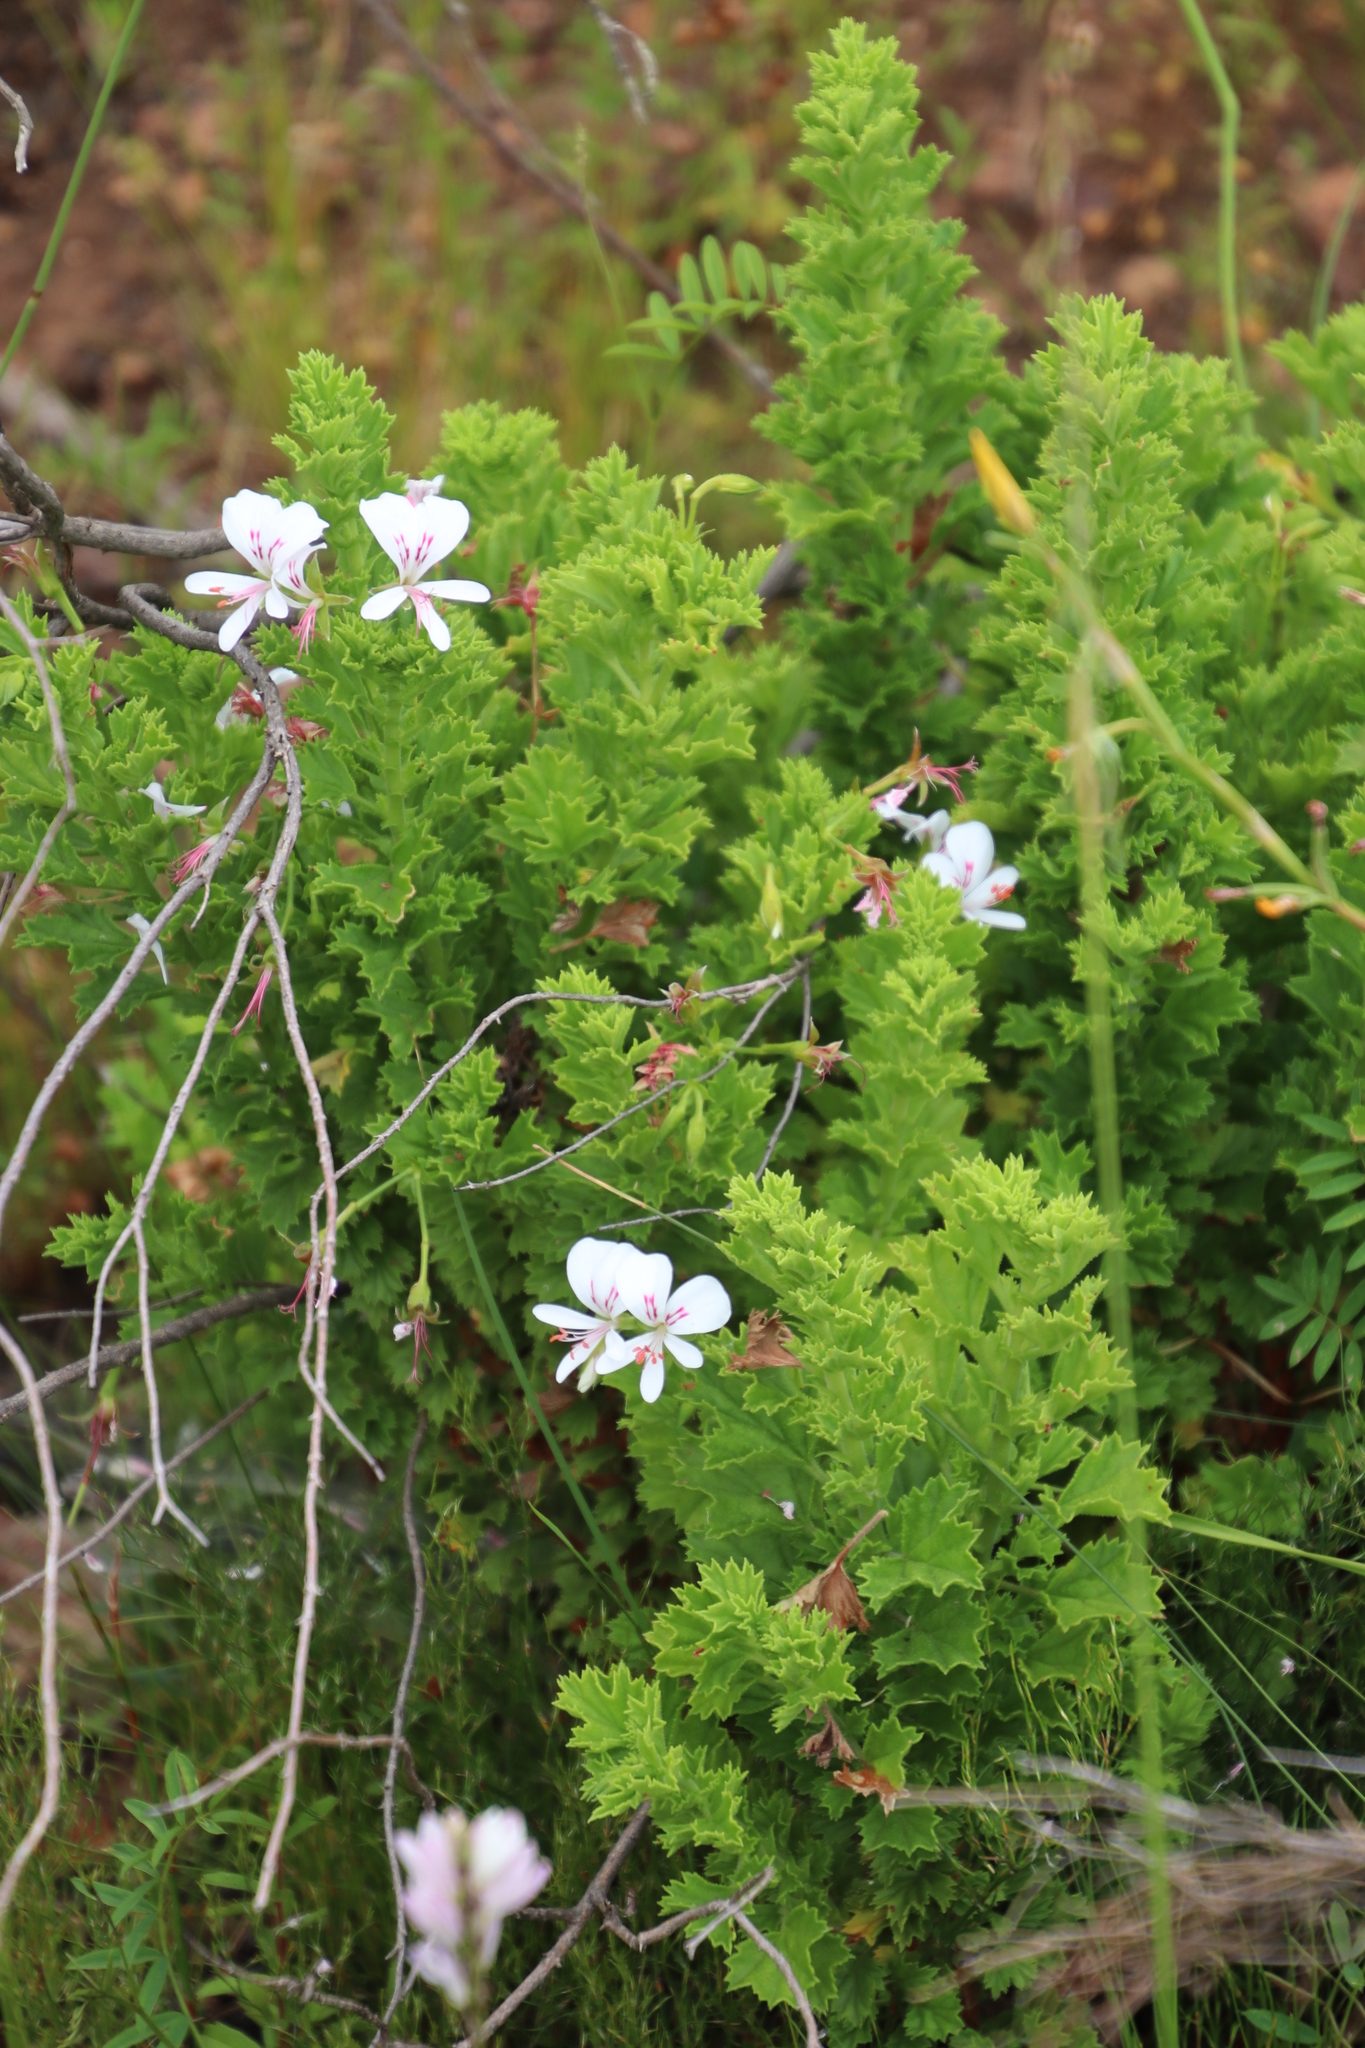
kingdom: Plantae
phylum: Tracheophyta
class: Magnoliopsida
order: Geraniales
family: Geraniaceae
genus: Pelargonium
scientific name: Pelargonium hermaniifolium
